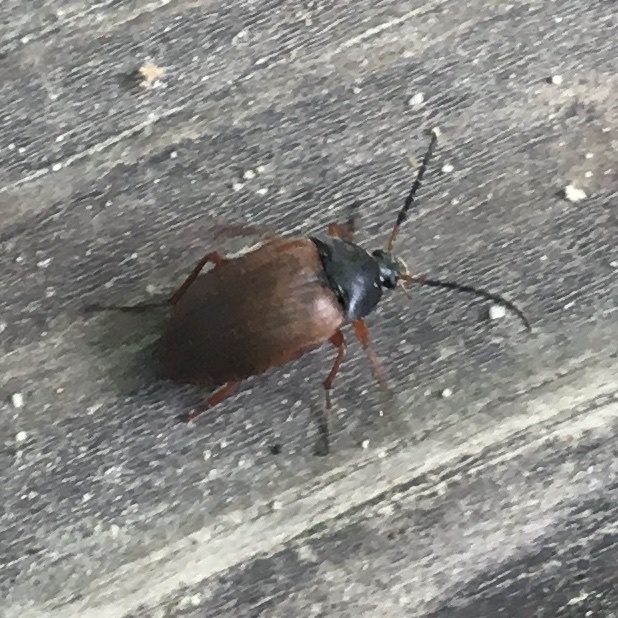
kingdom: Animalia
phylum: Arthropoda
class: Insecta
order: Coleoptera
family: Tenebrionidae
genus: Pseudocistela
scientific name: Pseudocistela brevis
